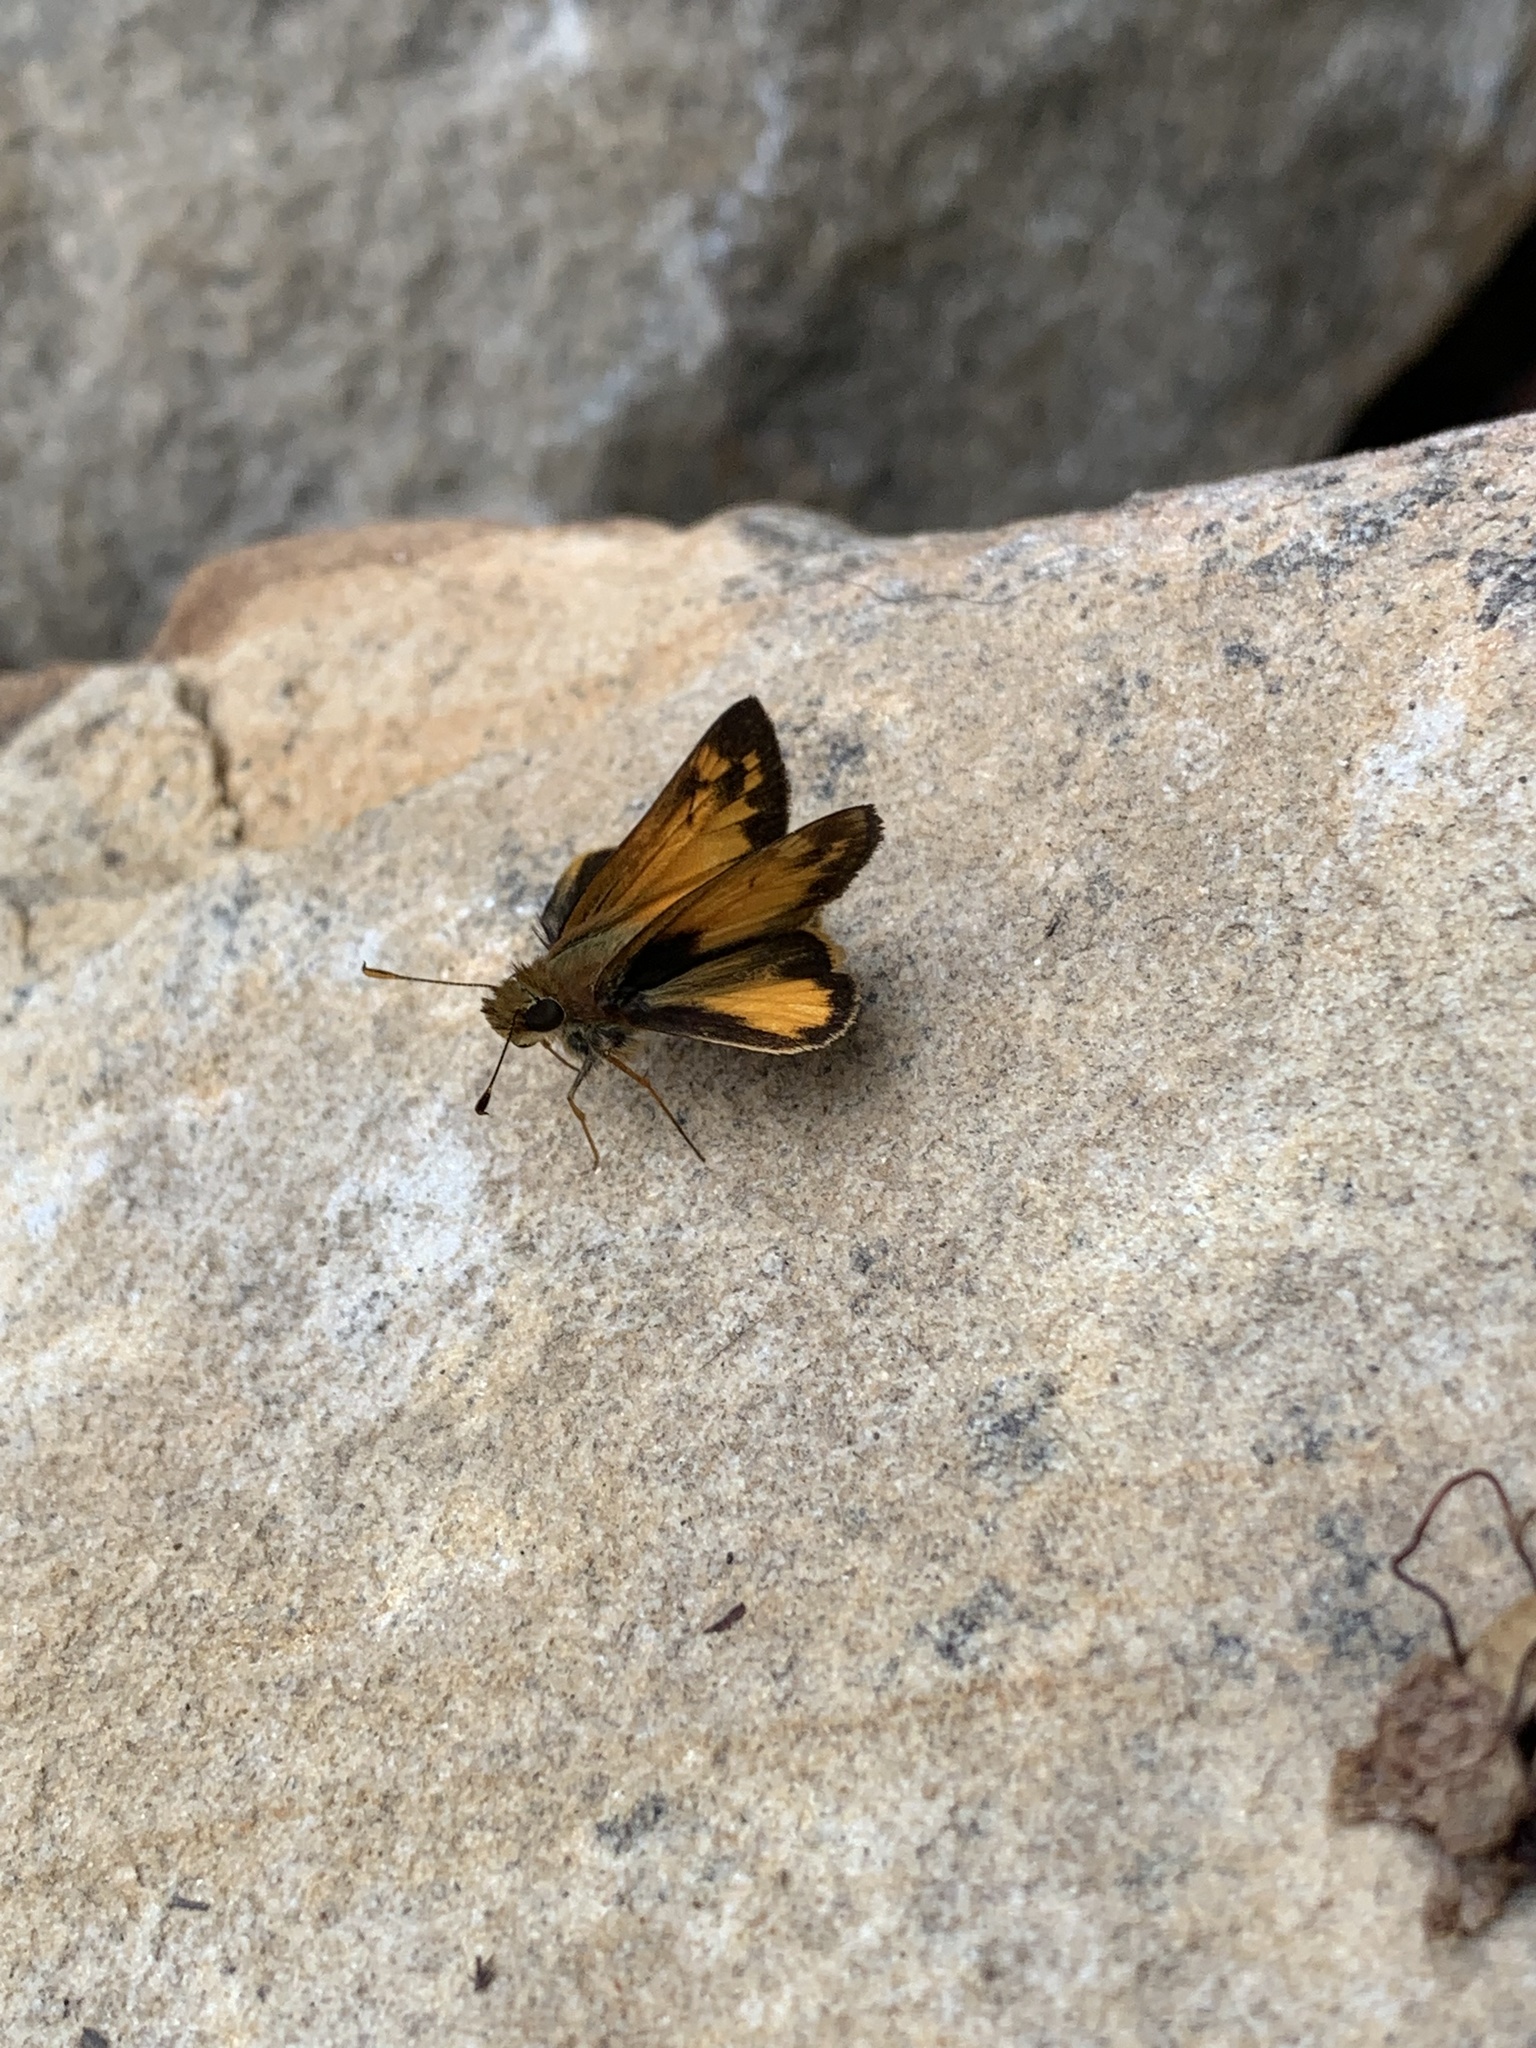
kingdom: Animalia
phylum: Arthropoda
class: Insecta
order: Lepidoptera
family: Hesperiidae
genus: Lon
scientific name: Lon zabulon
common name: Zabulon skipper
